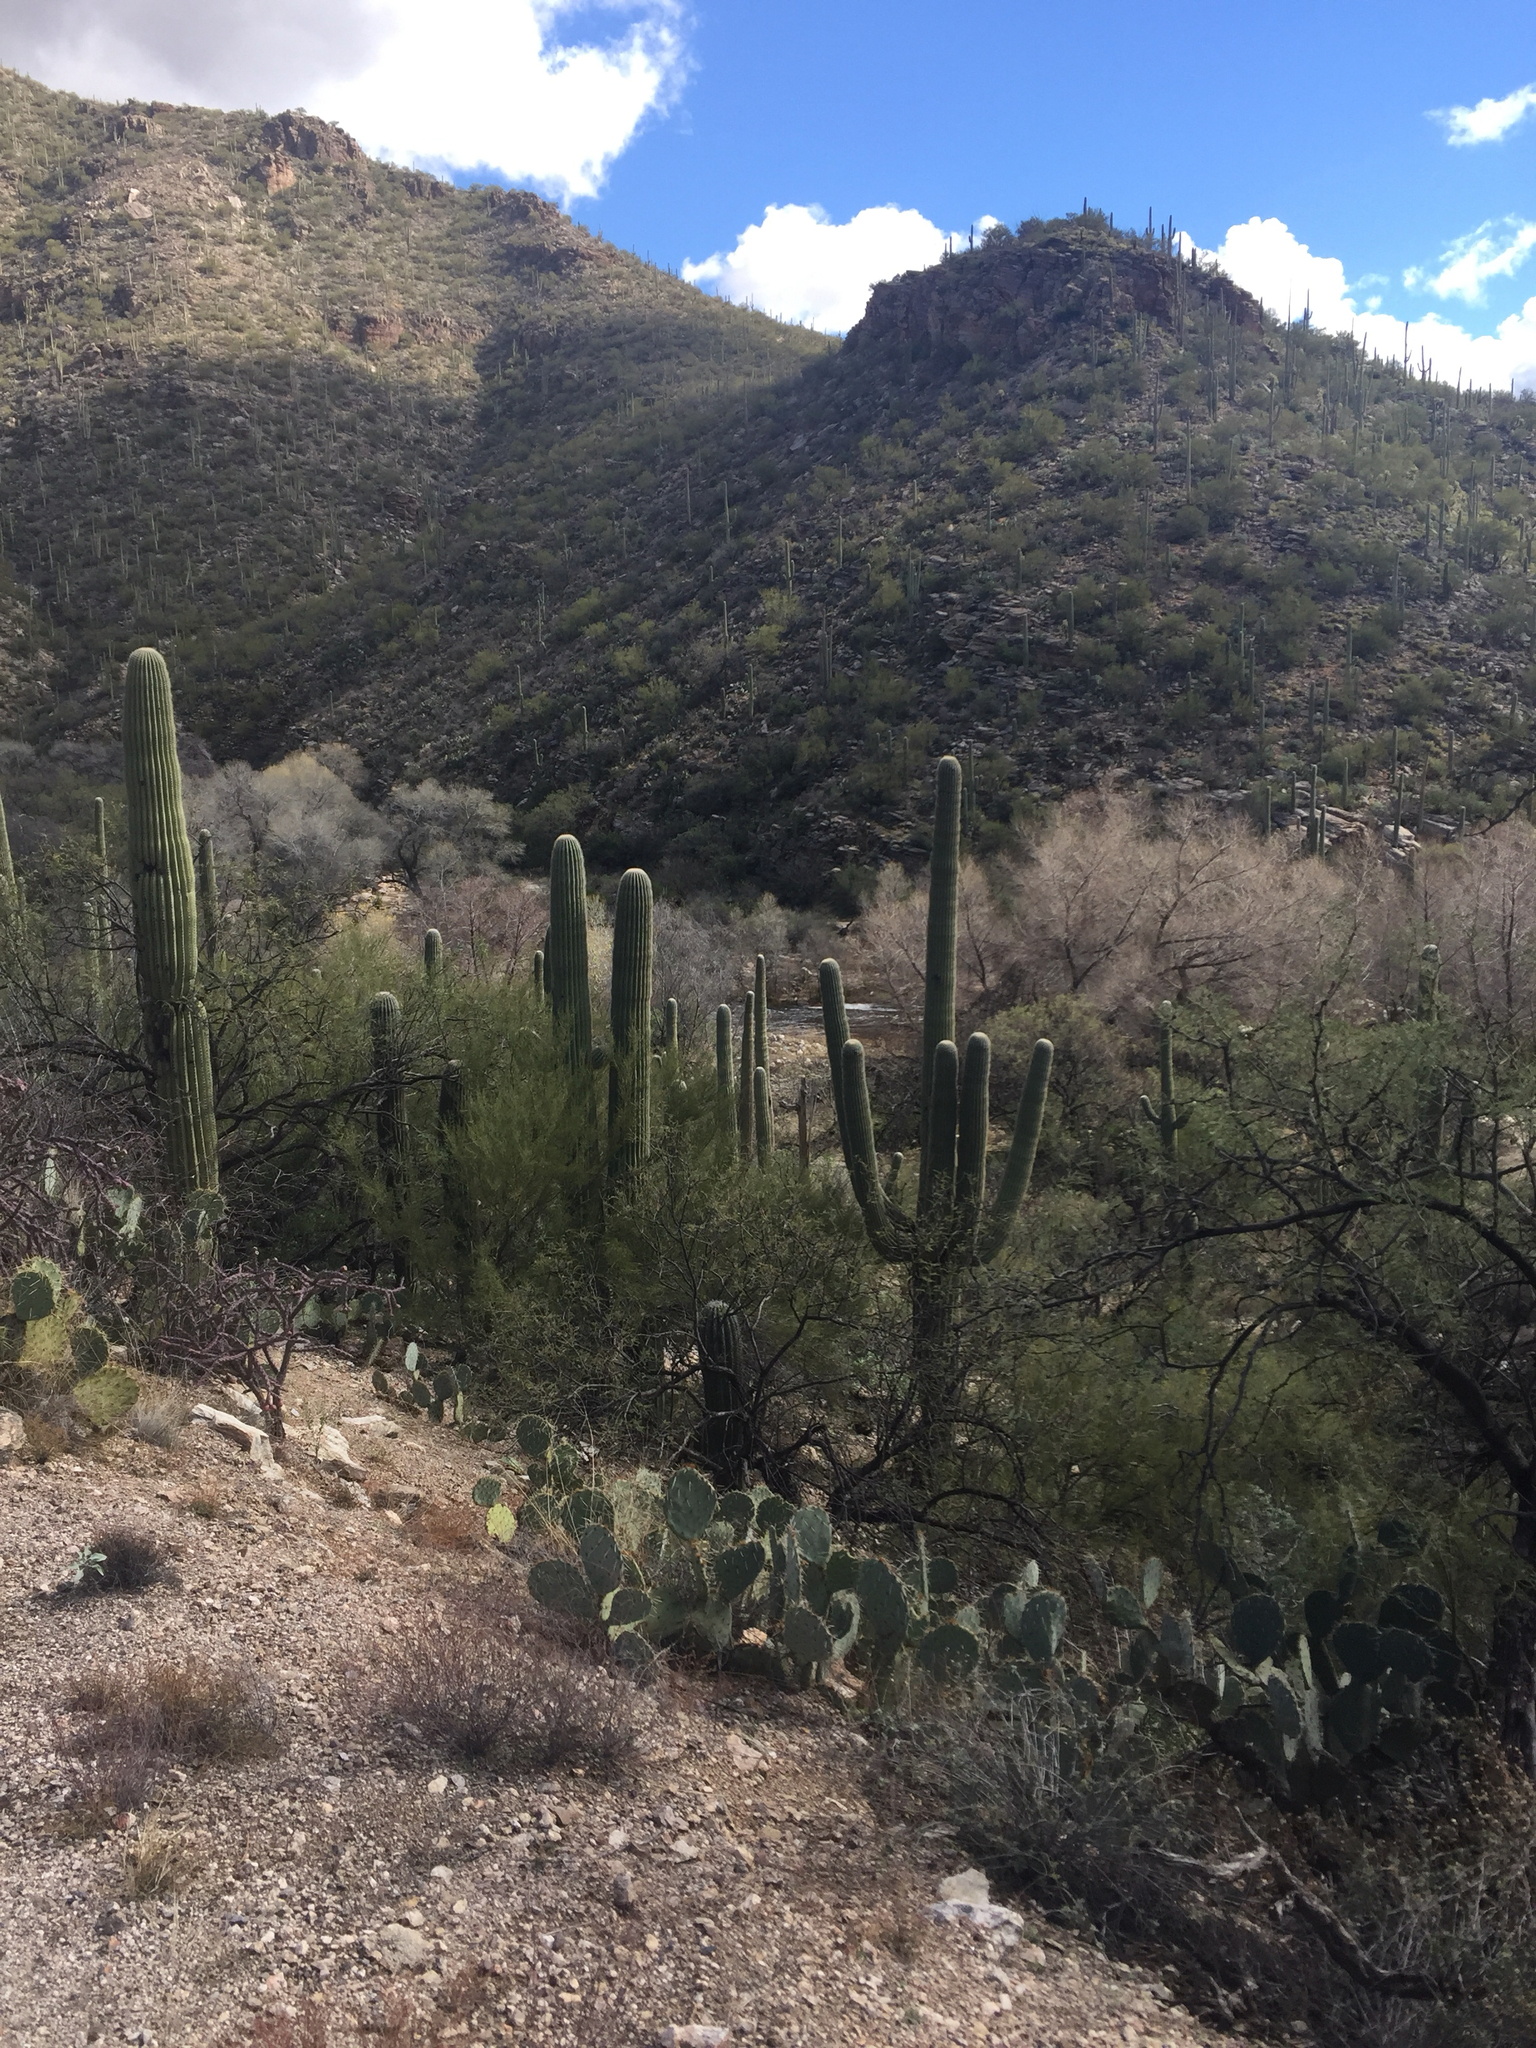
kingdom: Plantae
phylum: Tracheophyta
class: Magnoliopsida
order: Caryophyllales
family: Cactaceae
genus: Carnegiea
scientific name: Carnegiea gigantea
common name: Saguaro
